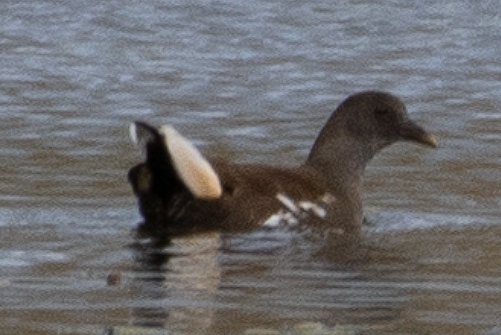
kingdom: Animalia
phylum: Chordata
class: Aves
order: Gruiformes
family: Rallidae
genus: Gallinula
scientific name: Gallinula chloropus
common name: Common moorhen
